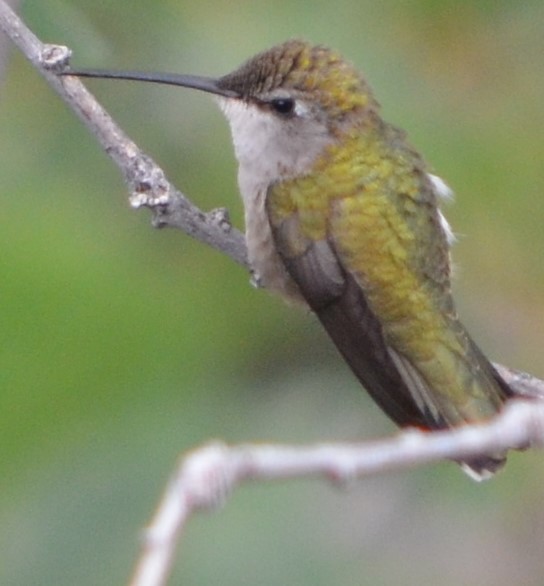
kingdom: Animalia
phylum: Chordata
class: Aves
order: Apodiformes
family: Trochilidae
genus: Archilochus
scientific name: Archilochus alexandri
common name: Black-chinned hummingbird
